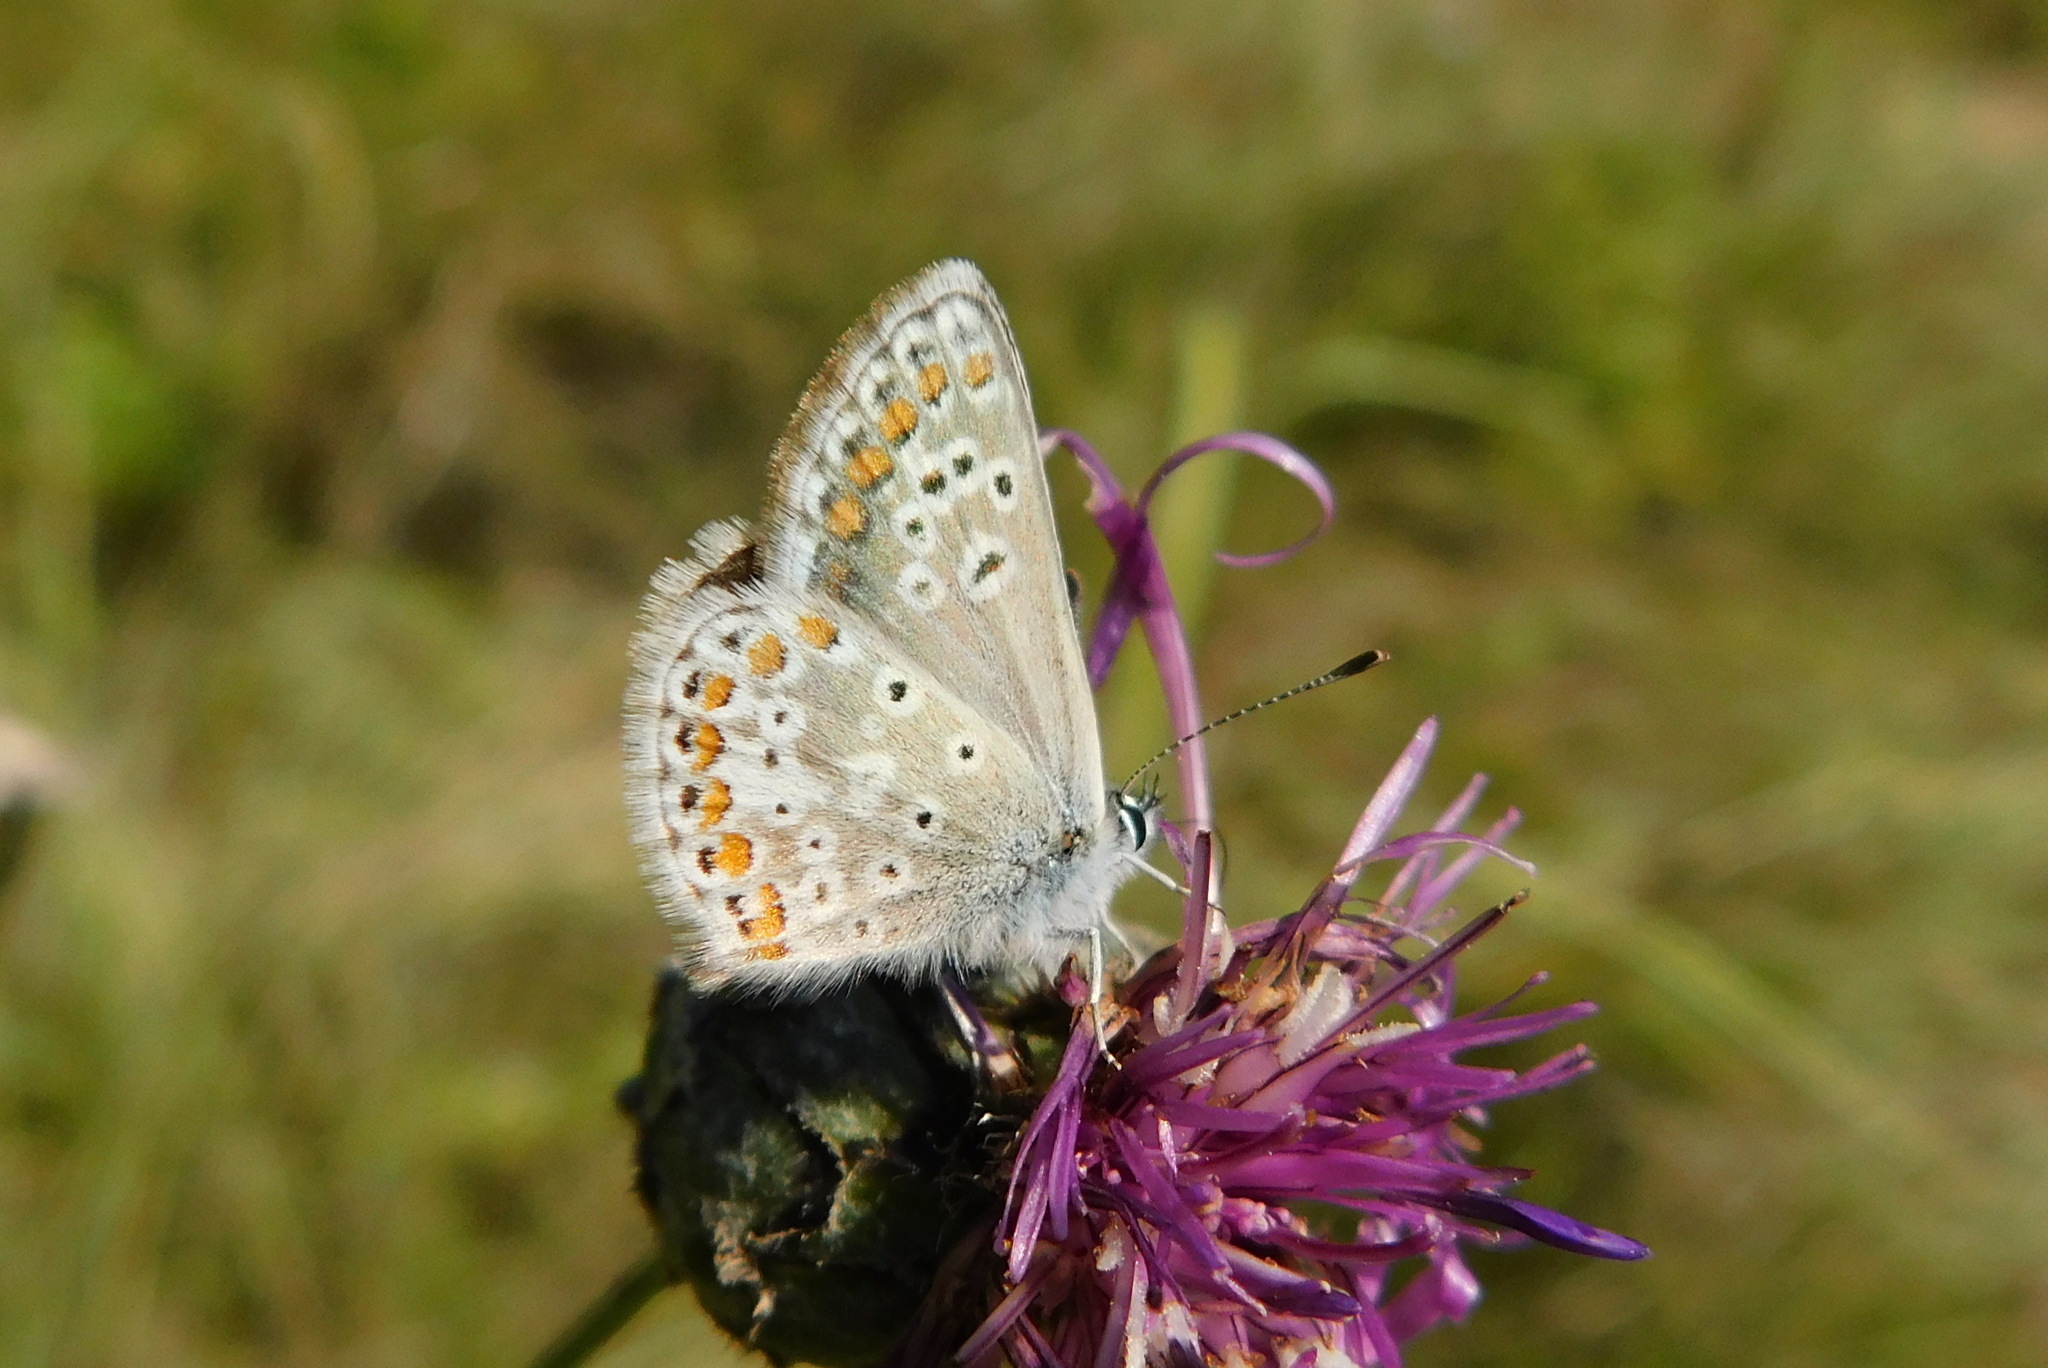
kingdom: Animalia
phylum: Arthropoda
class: Insecta
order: Lepidoptera
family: Lycaenidae
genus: Aricia
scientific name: Aricia agestis
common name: Brown argus
